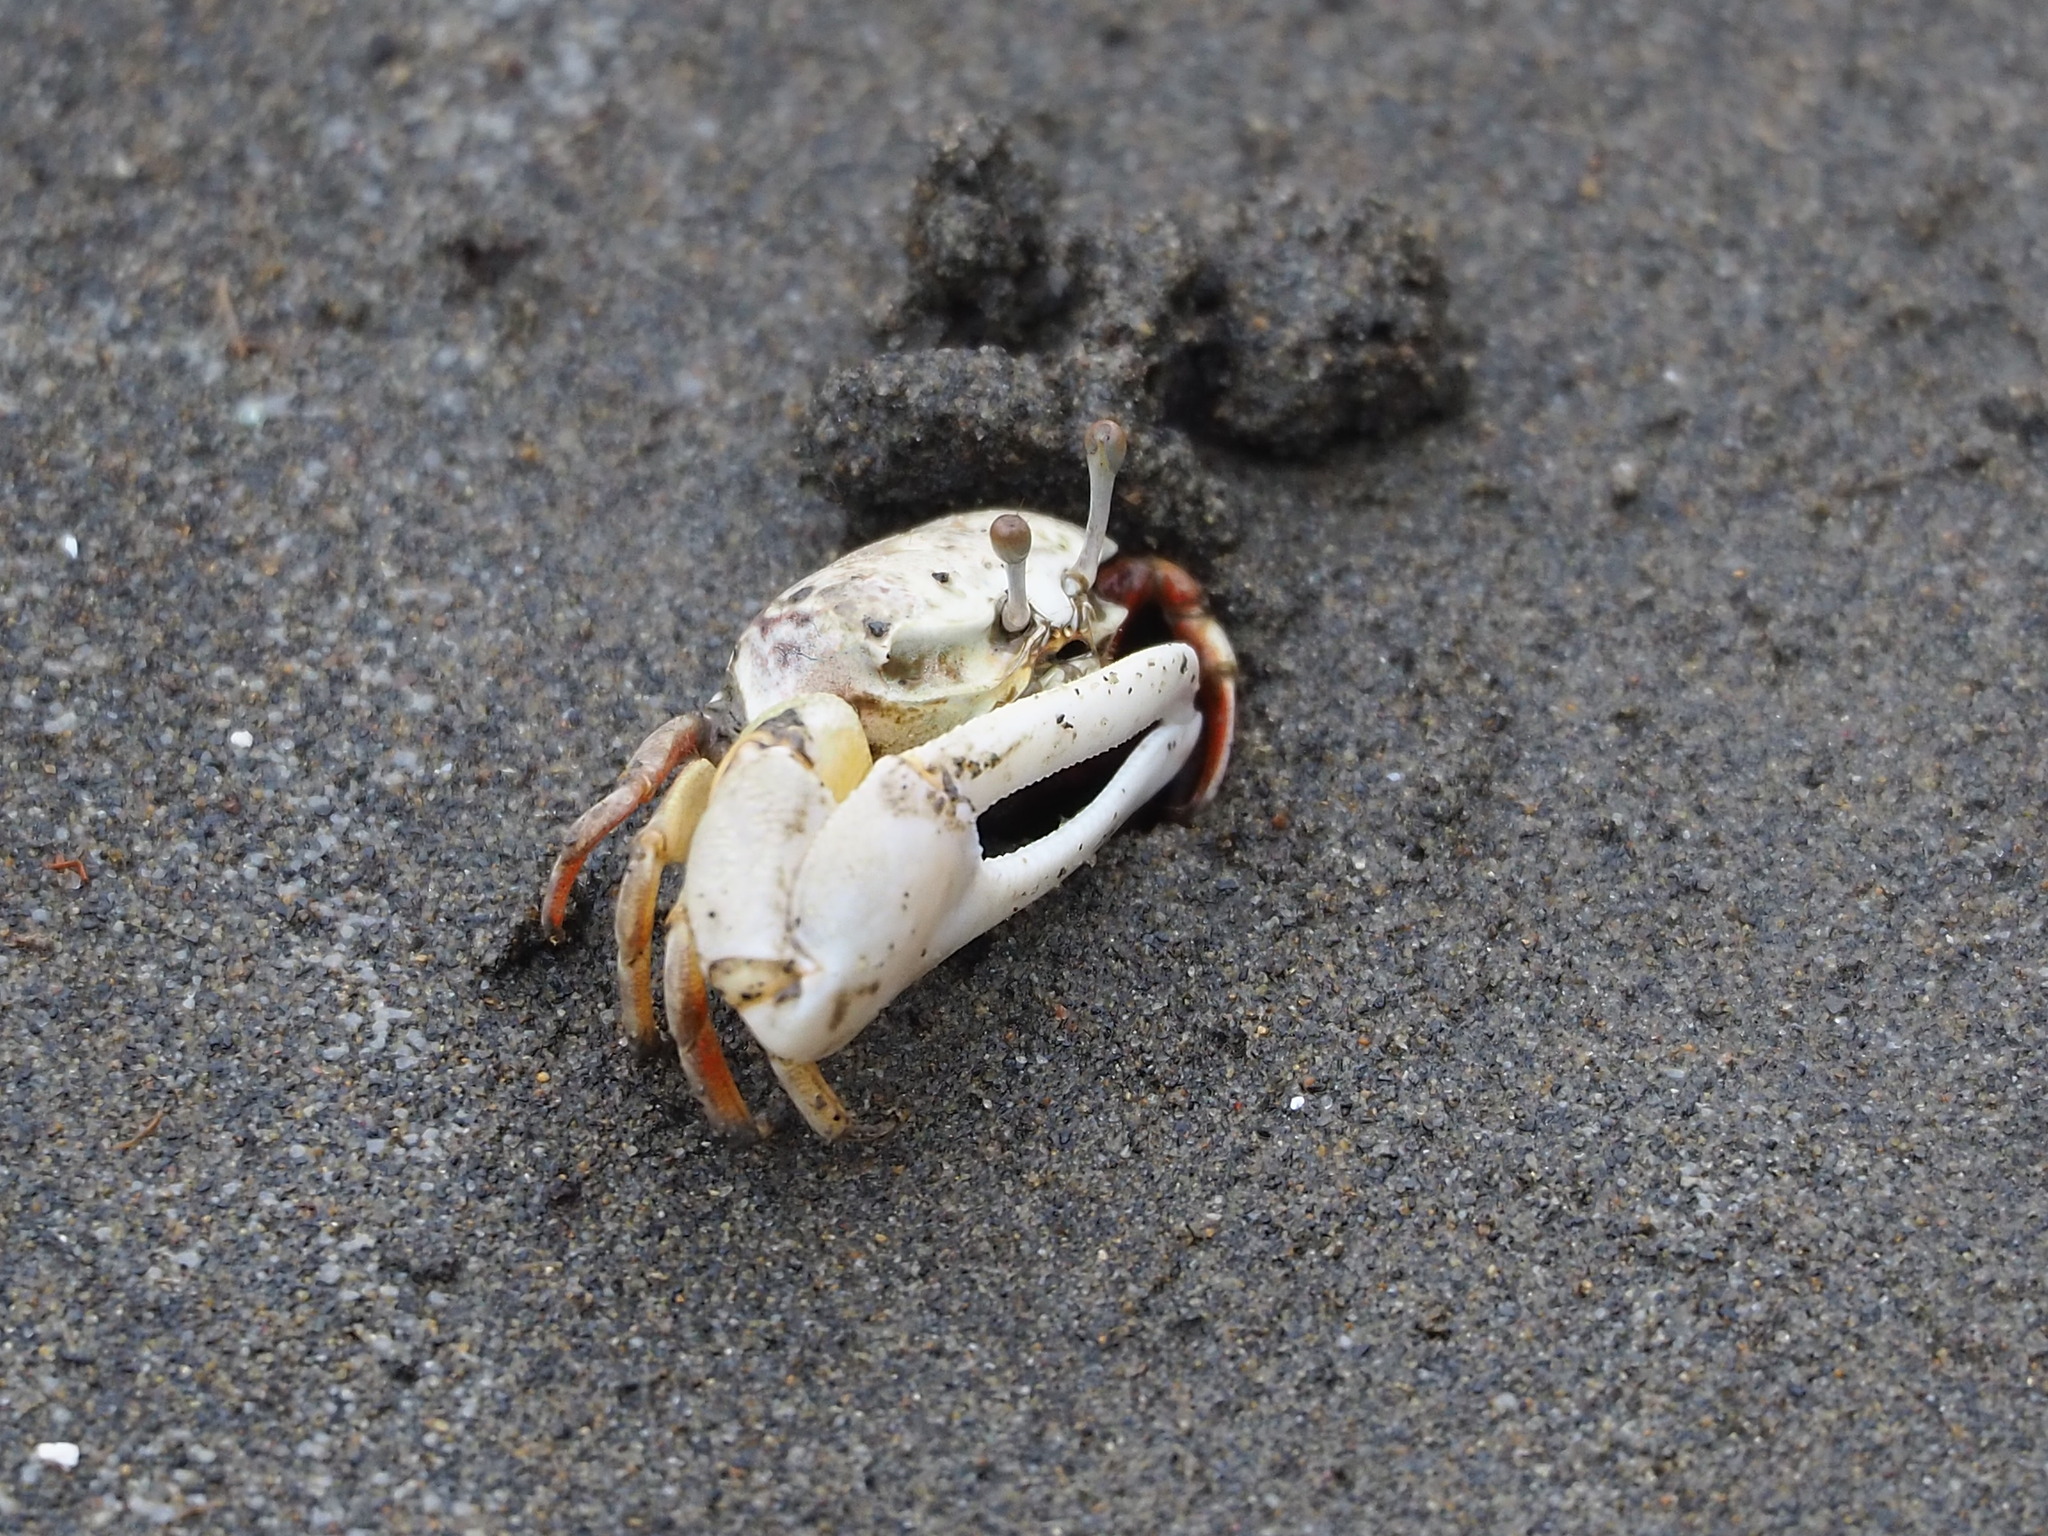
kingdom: Animalia
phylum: Arthropoda
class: Malacostraca
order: Decapoda
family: Ocypodidae
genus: Austruca
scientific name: Austruca lactea
